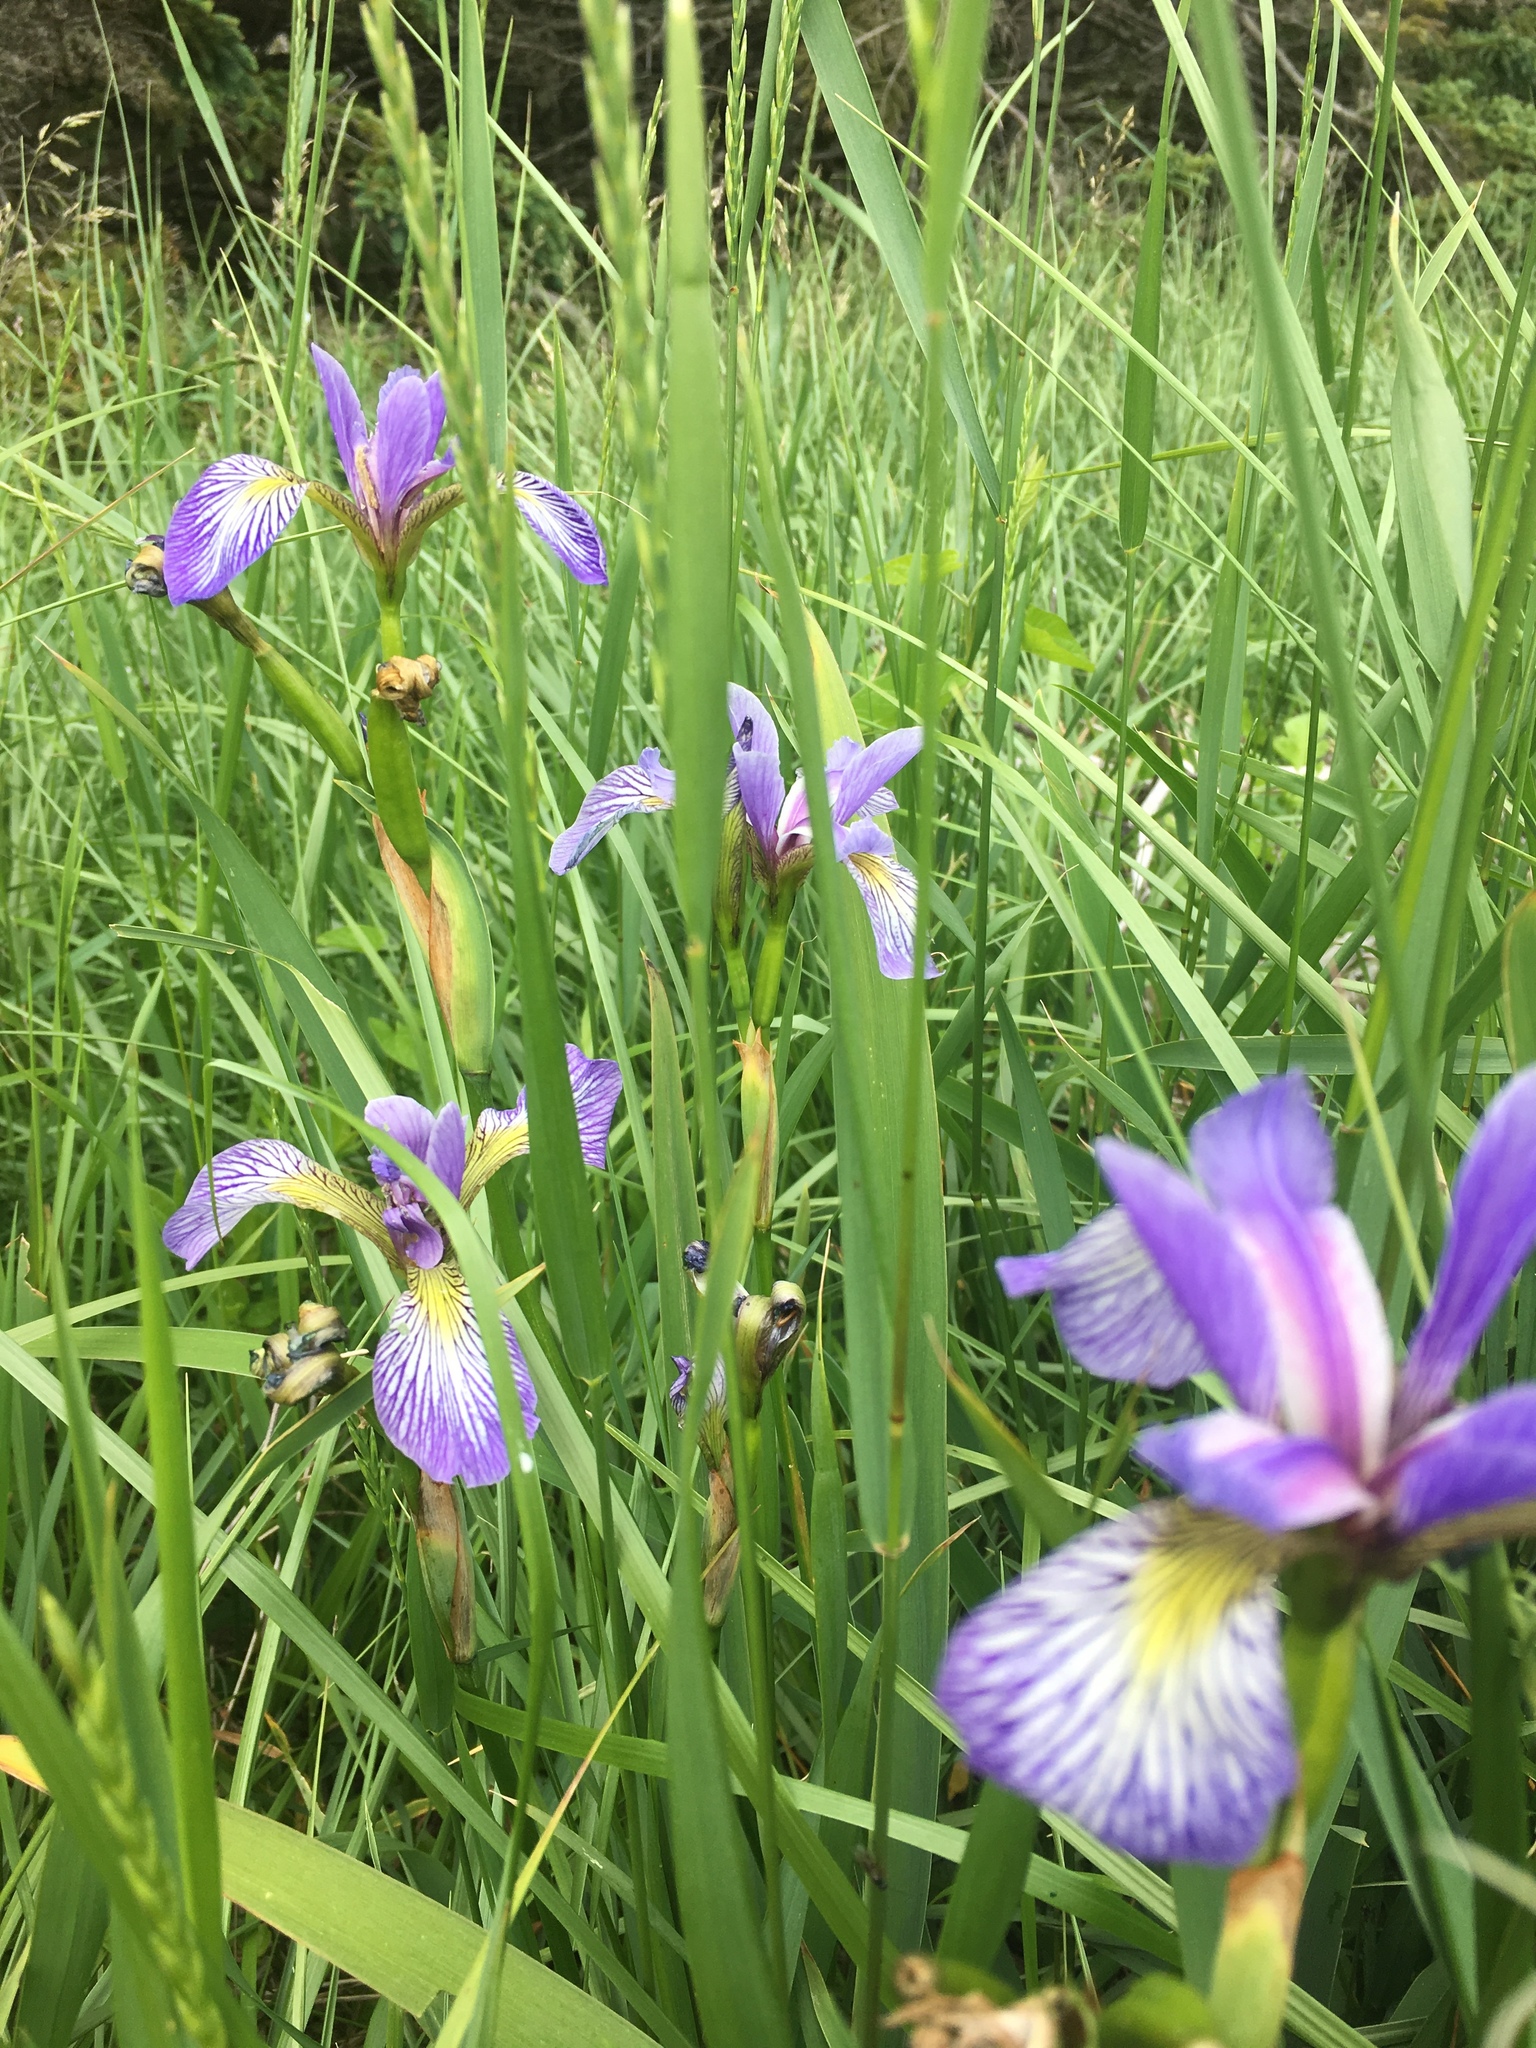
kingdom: Plantae
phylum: Tracheophyta
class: Liliopsida
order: Asparagales
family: Iridaceae
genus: Iris
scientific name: Iris versicolor
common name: Purple iris
